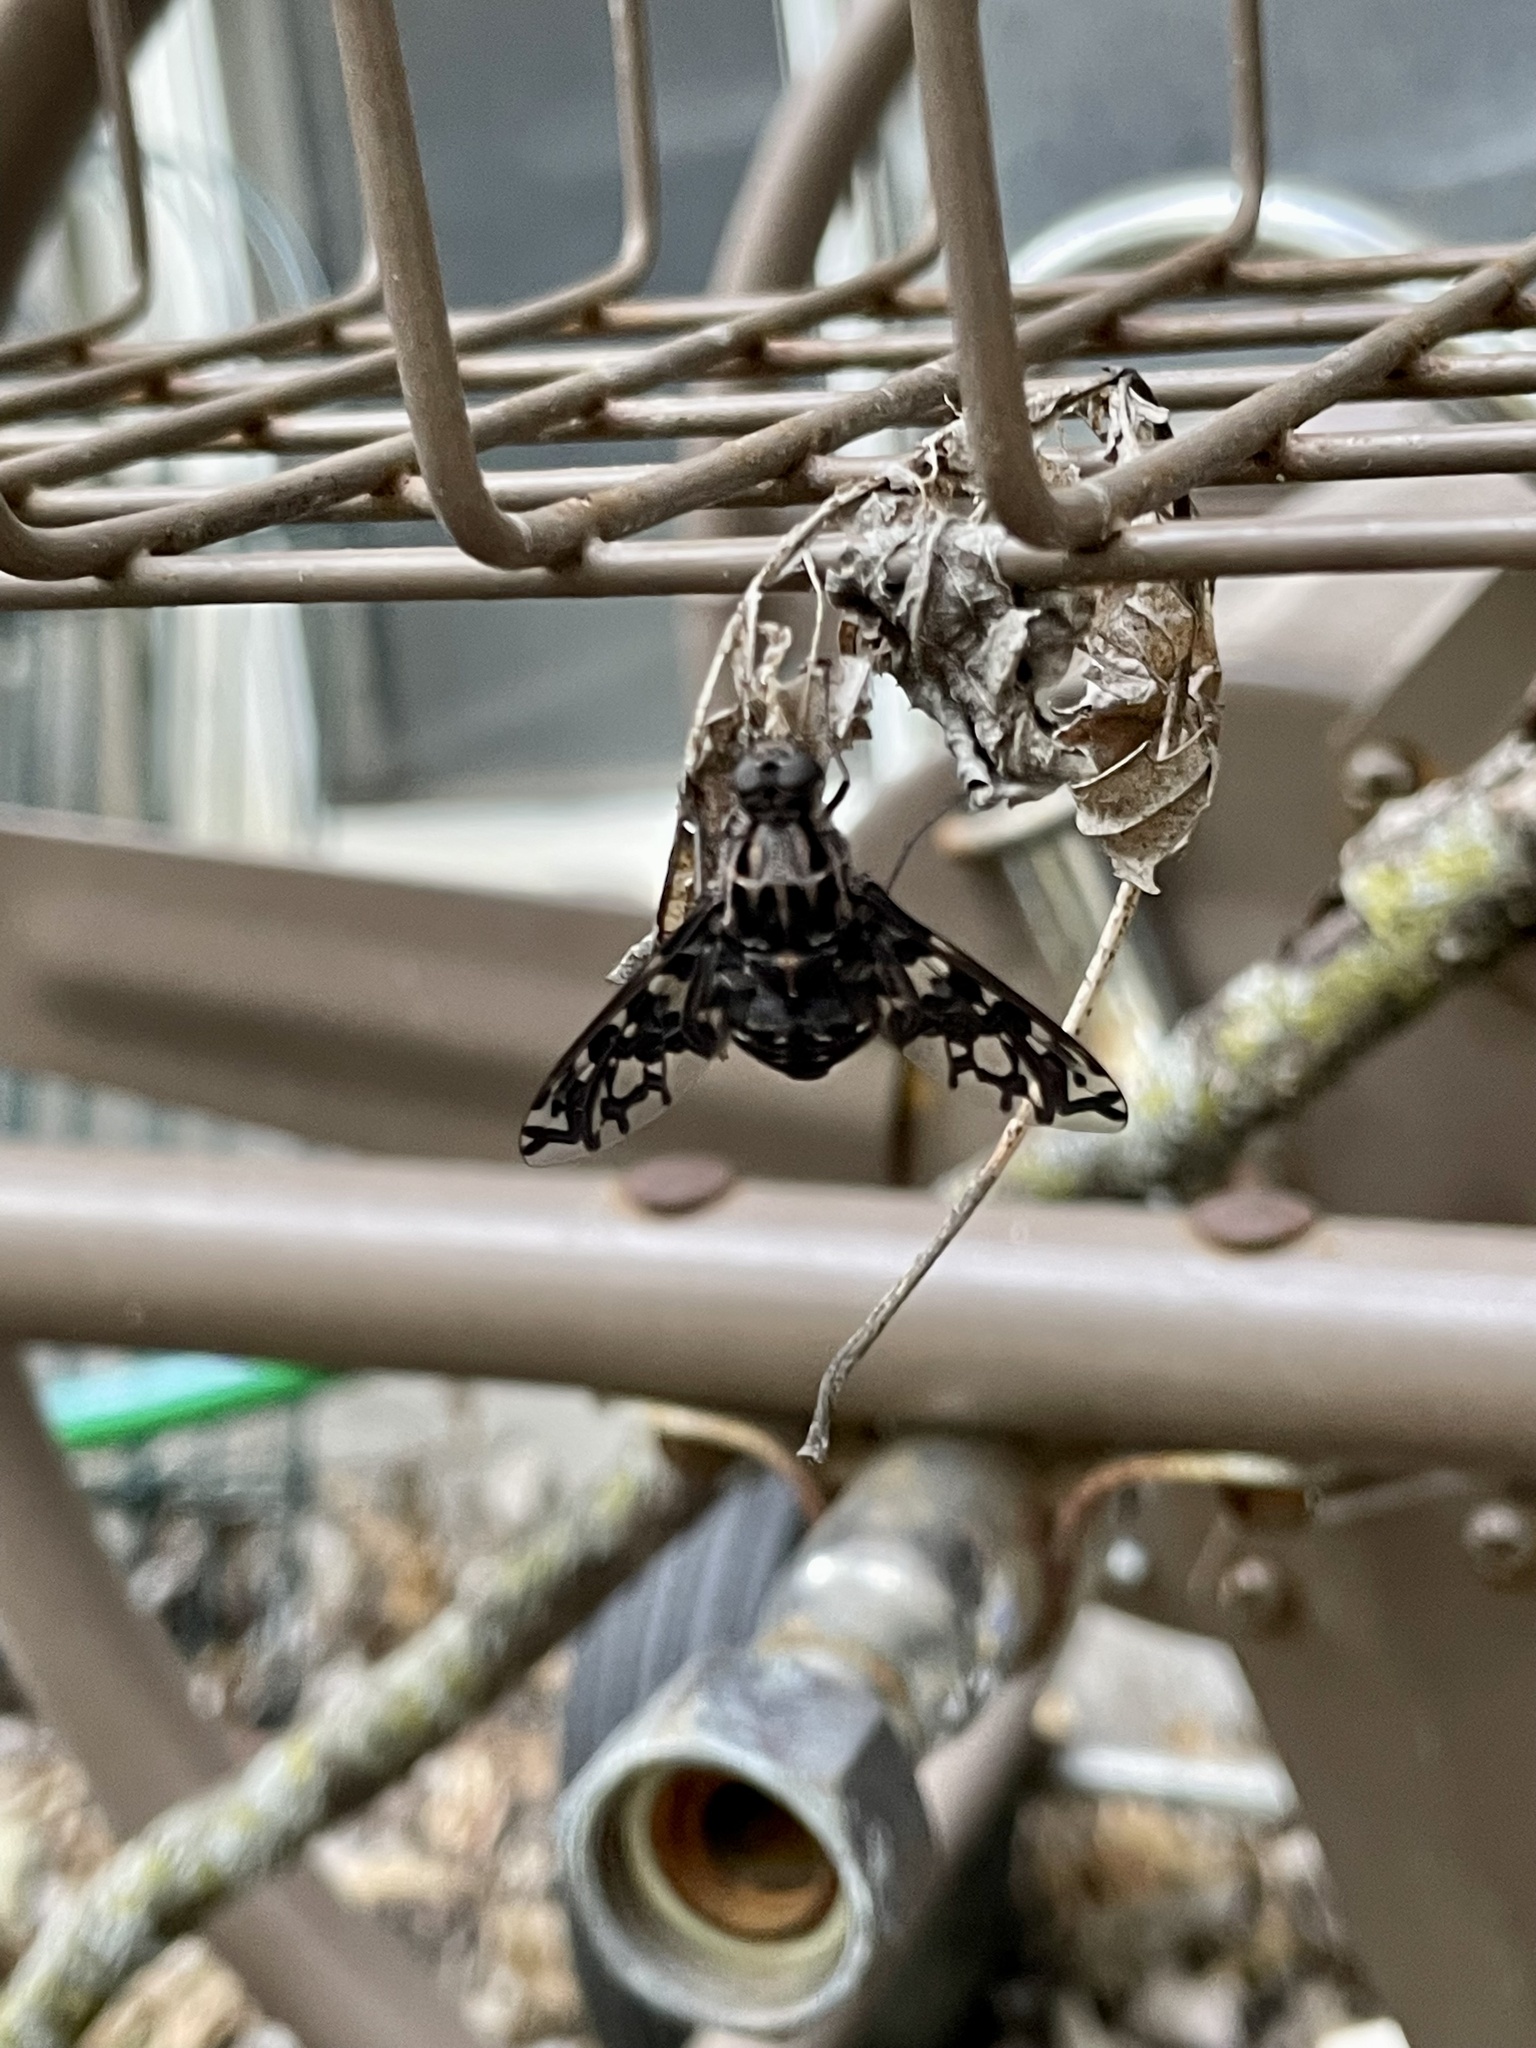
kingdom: Animalia
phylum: Arthropoda
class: Insecta
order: Diptera
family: Bombyliidae
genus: Xenox
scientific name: Xenox tigrinus
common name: Tiger bee fly
